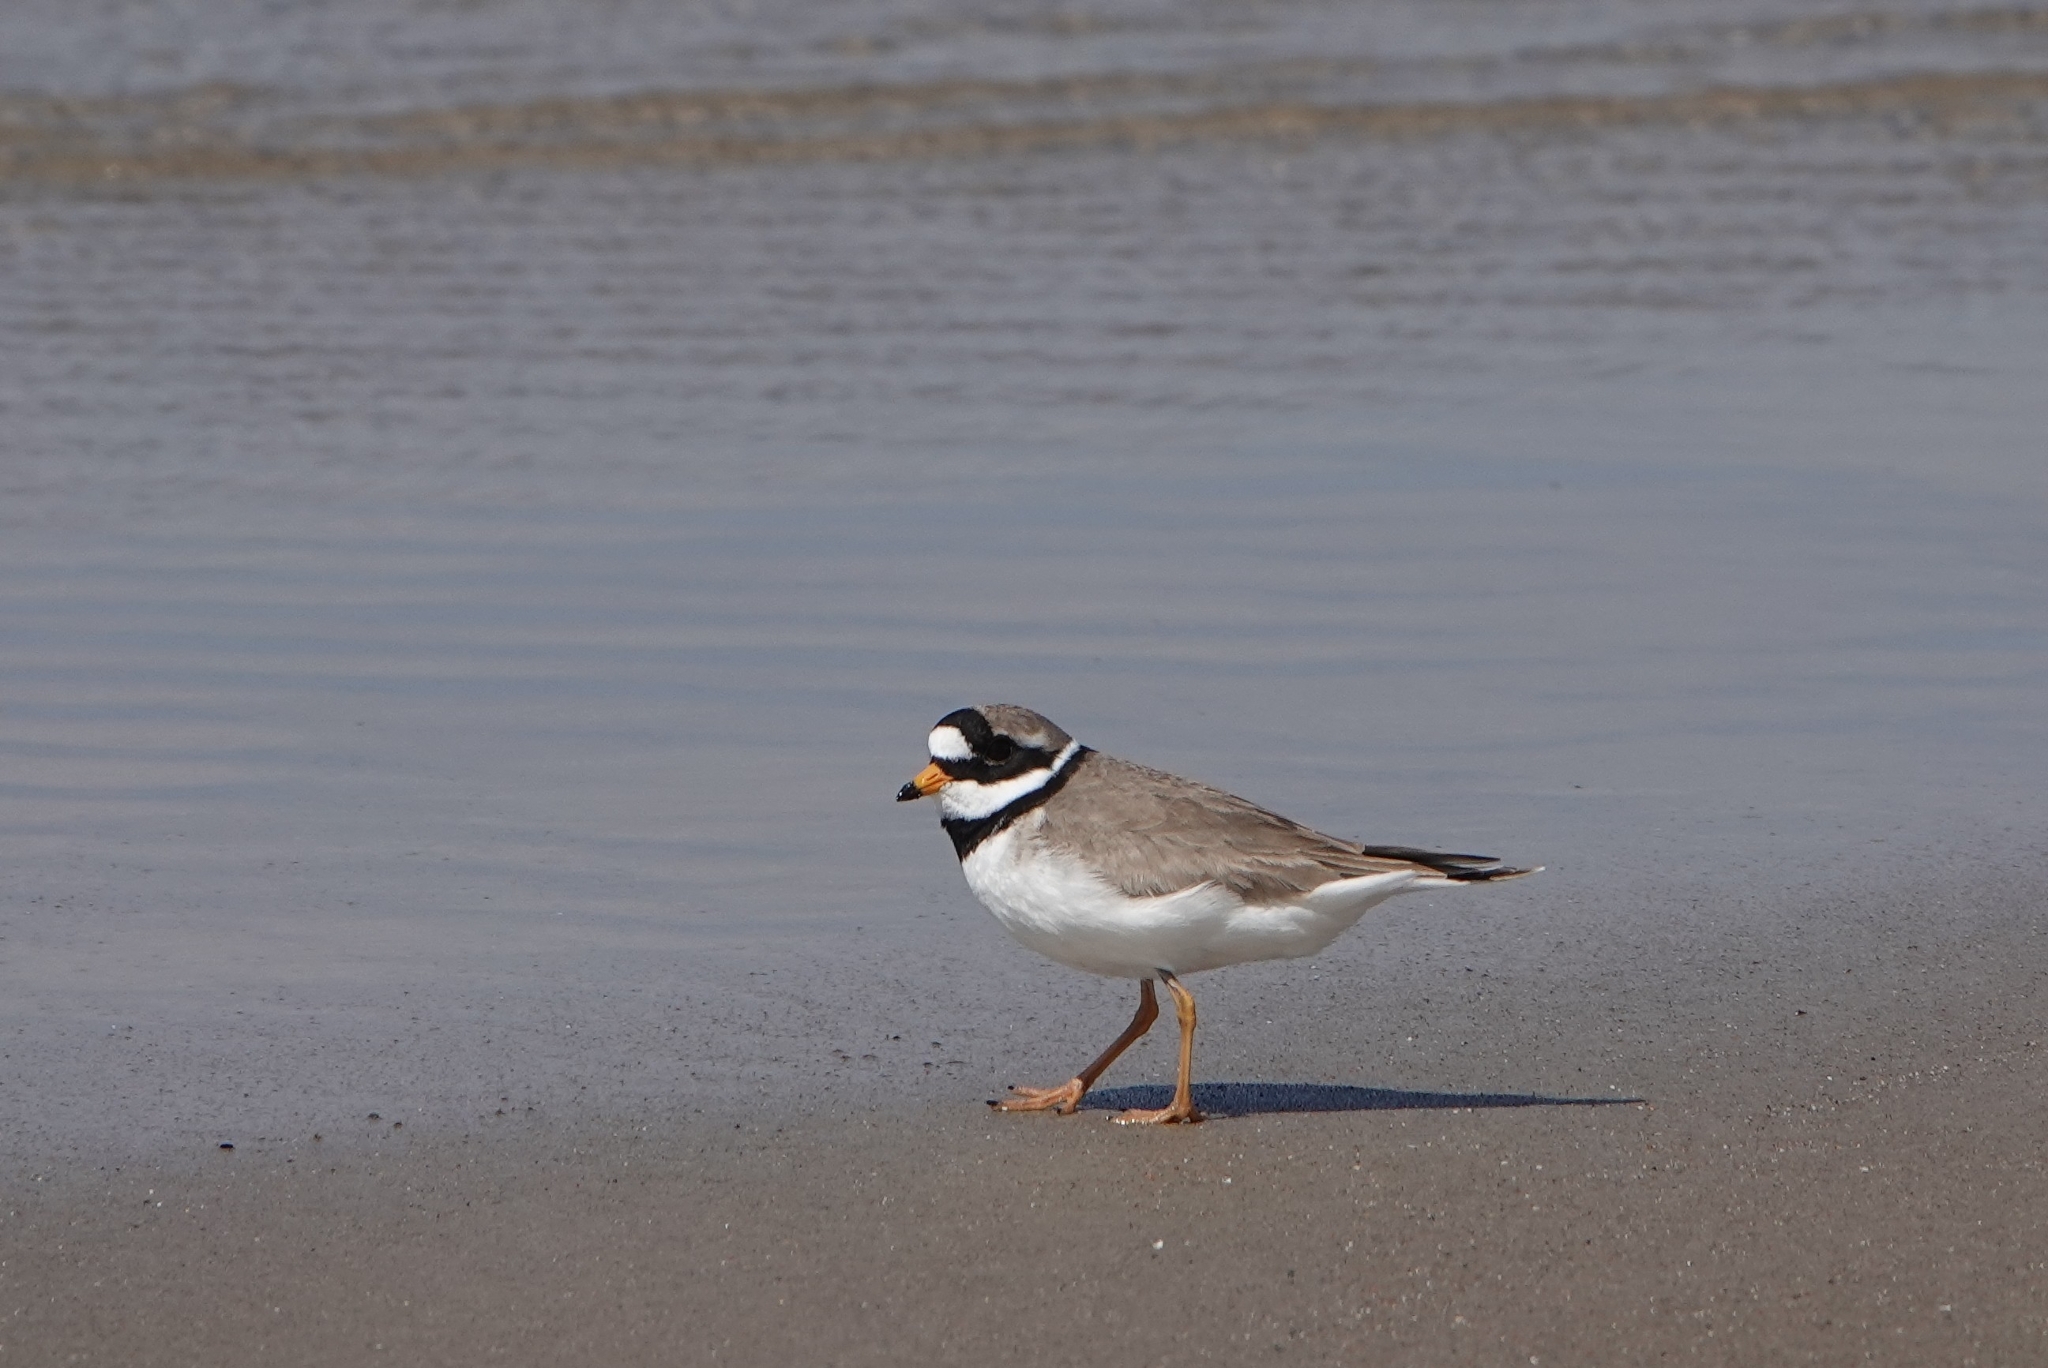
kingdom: Animalia
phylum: Chordata
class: Aves
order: Charadriiformes
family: Charadriidae
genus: Charadrius
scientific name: Charadrius hiaticula
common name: Common ringed plover
